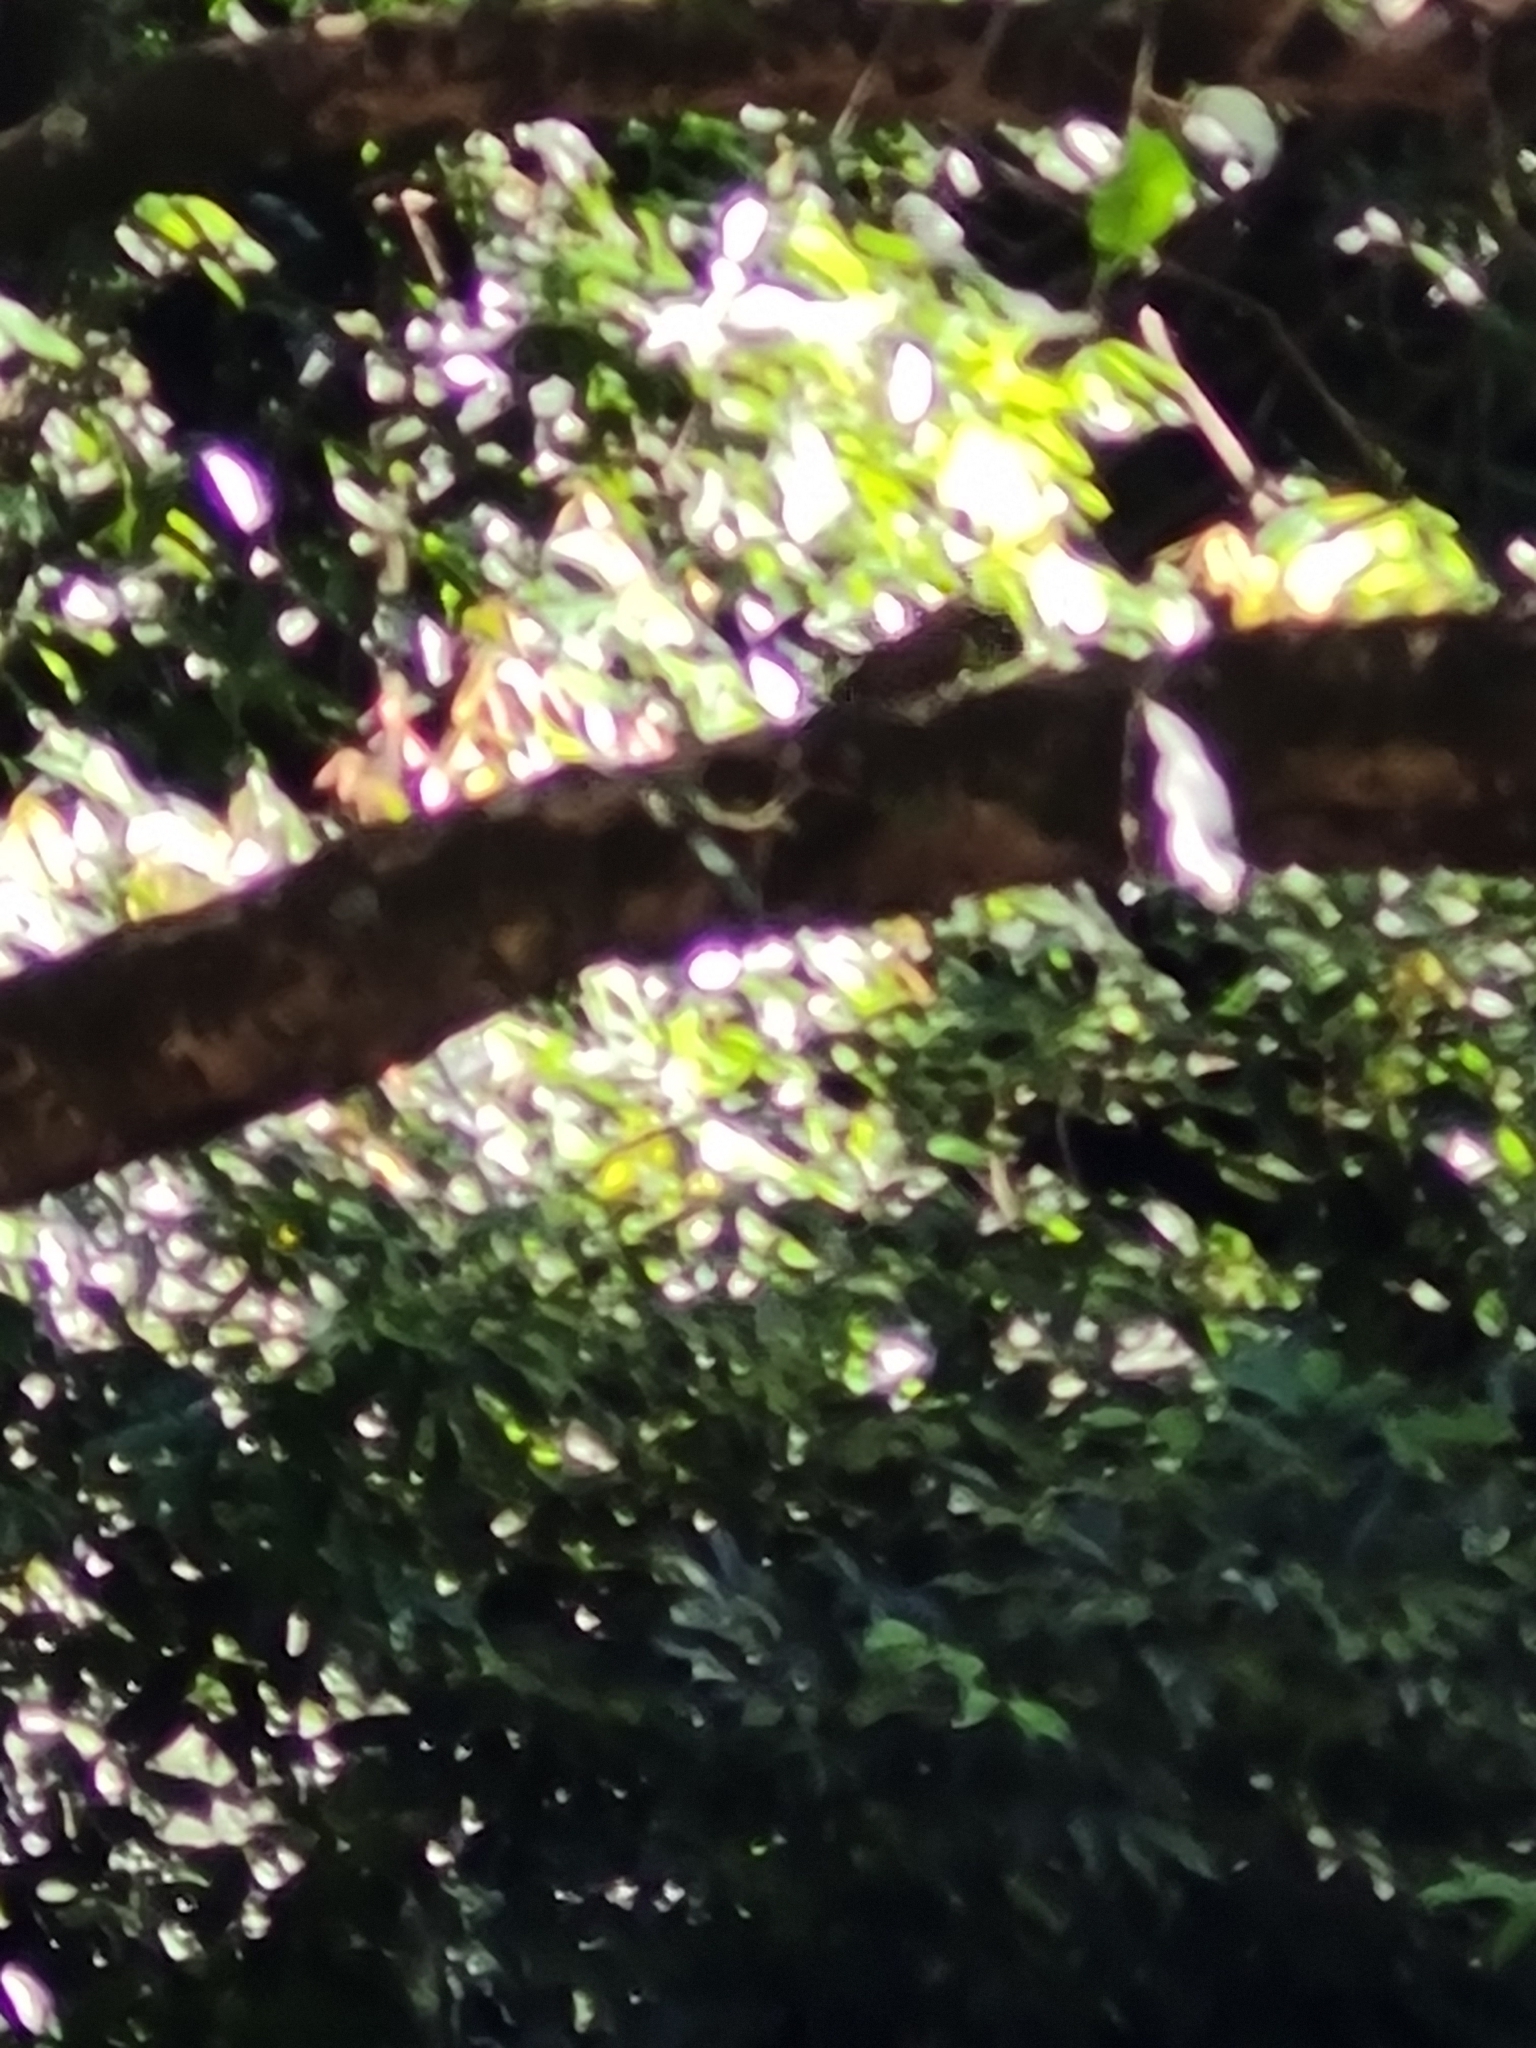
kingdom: Animalia
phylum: Chordata
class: Aves
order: Piciformes
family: Picidae
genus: Colaptes
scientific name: Colaptes melanochloros
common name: Green-barred woodpecker
